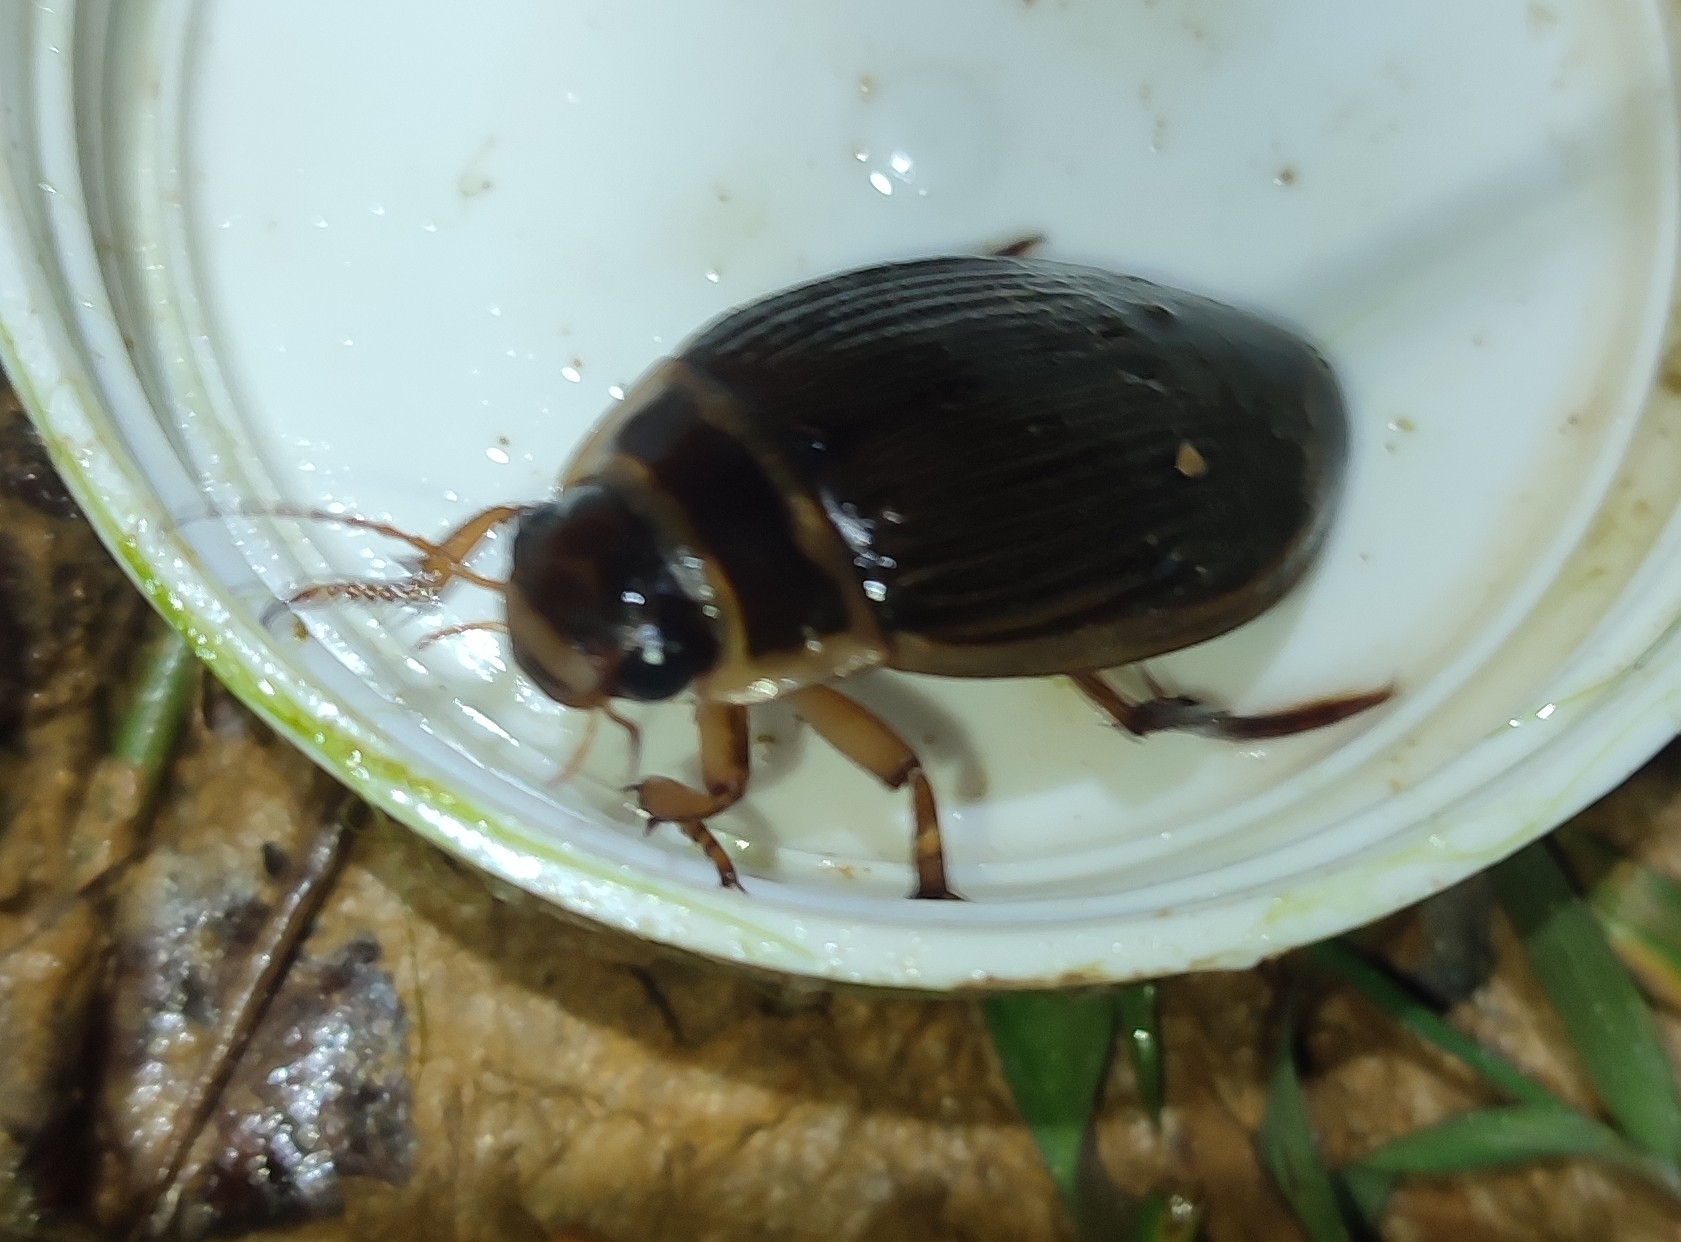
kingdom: Animalia
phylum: Arthropoda
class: Insecta
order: Coleoptera
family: Dytiscidae
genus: Dytiscus
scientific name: Dytiscus marginalis
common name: Great water beetle
